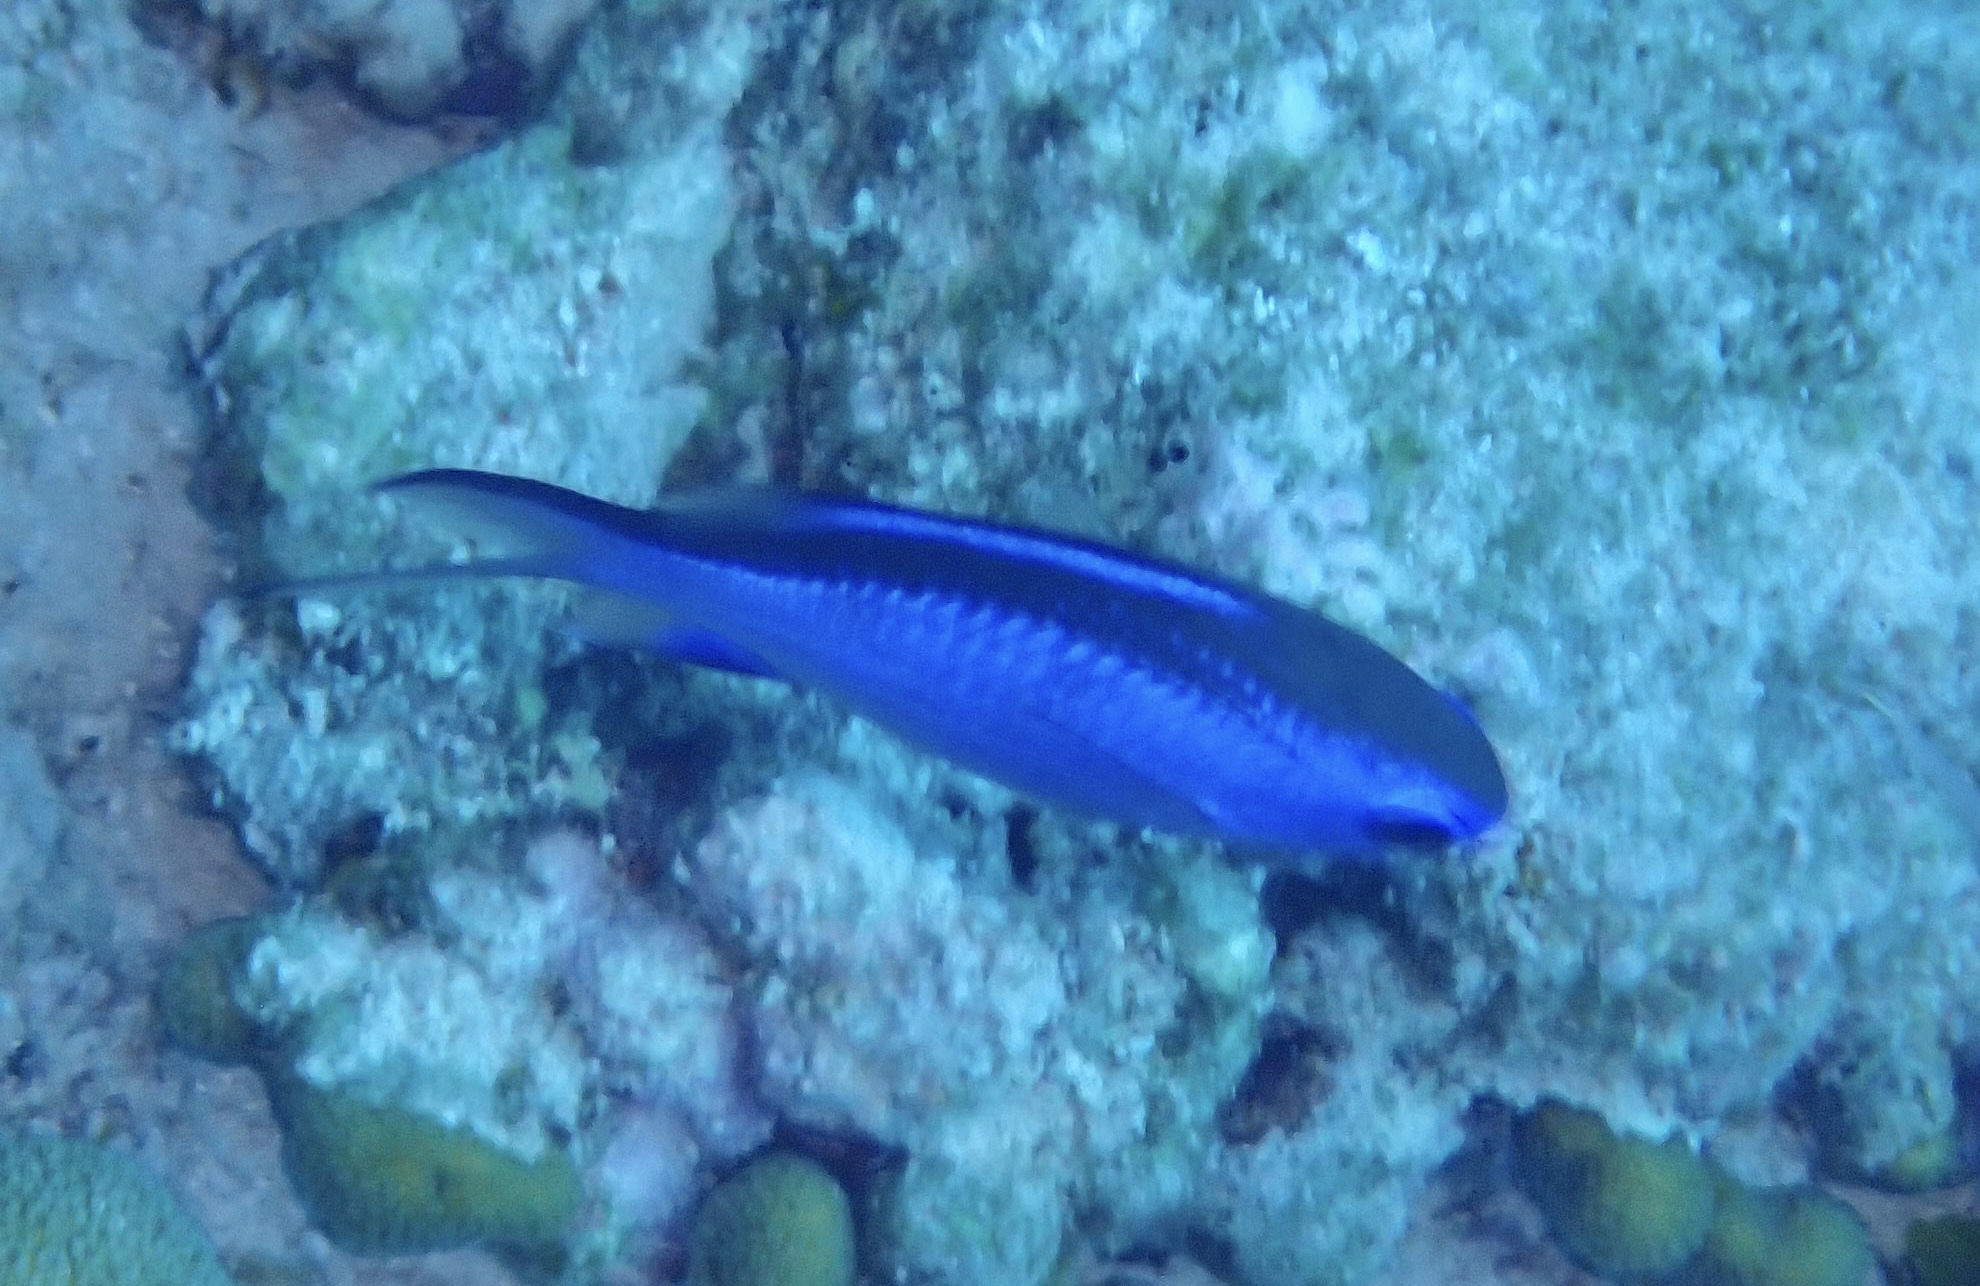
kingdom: Animalia
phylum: Chordata
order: Perciformes
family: Pomacentridae
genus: Chromis
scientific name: Chromis cyanea
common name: Blue chromis
